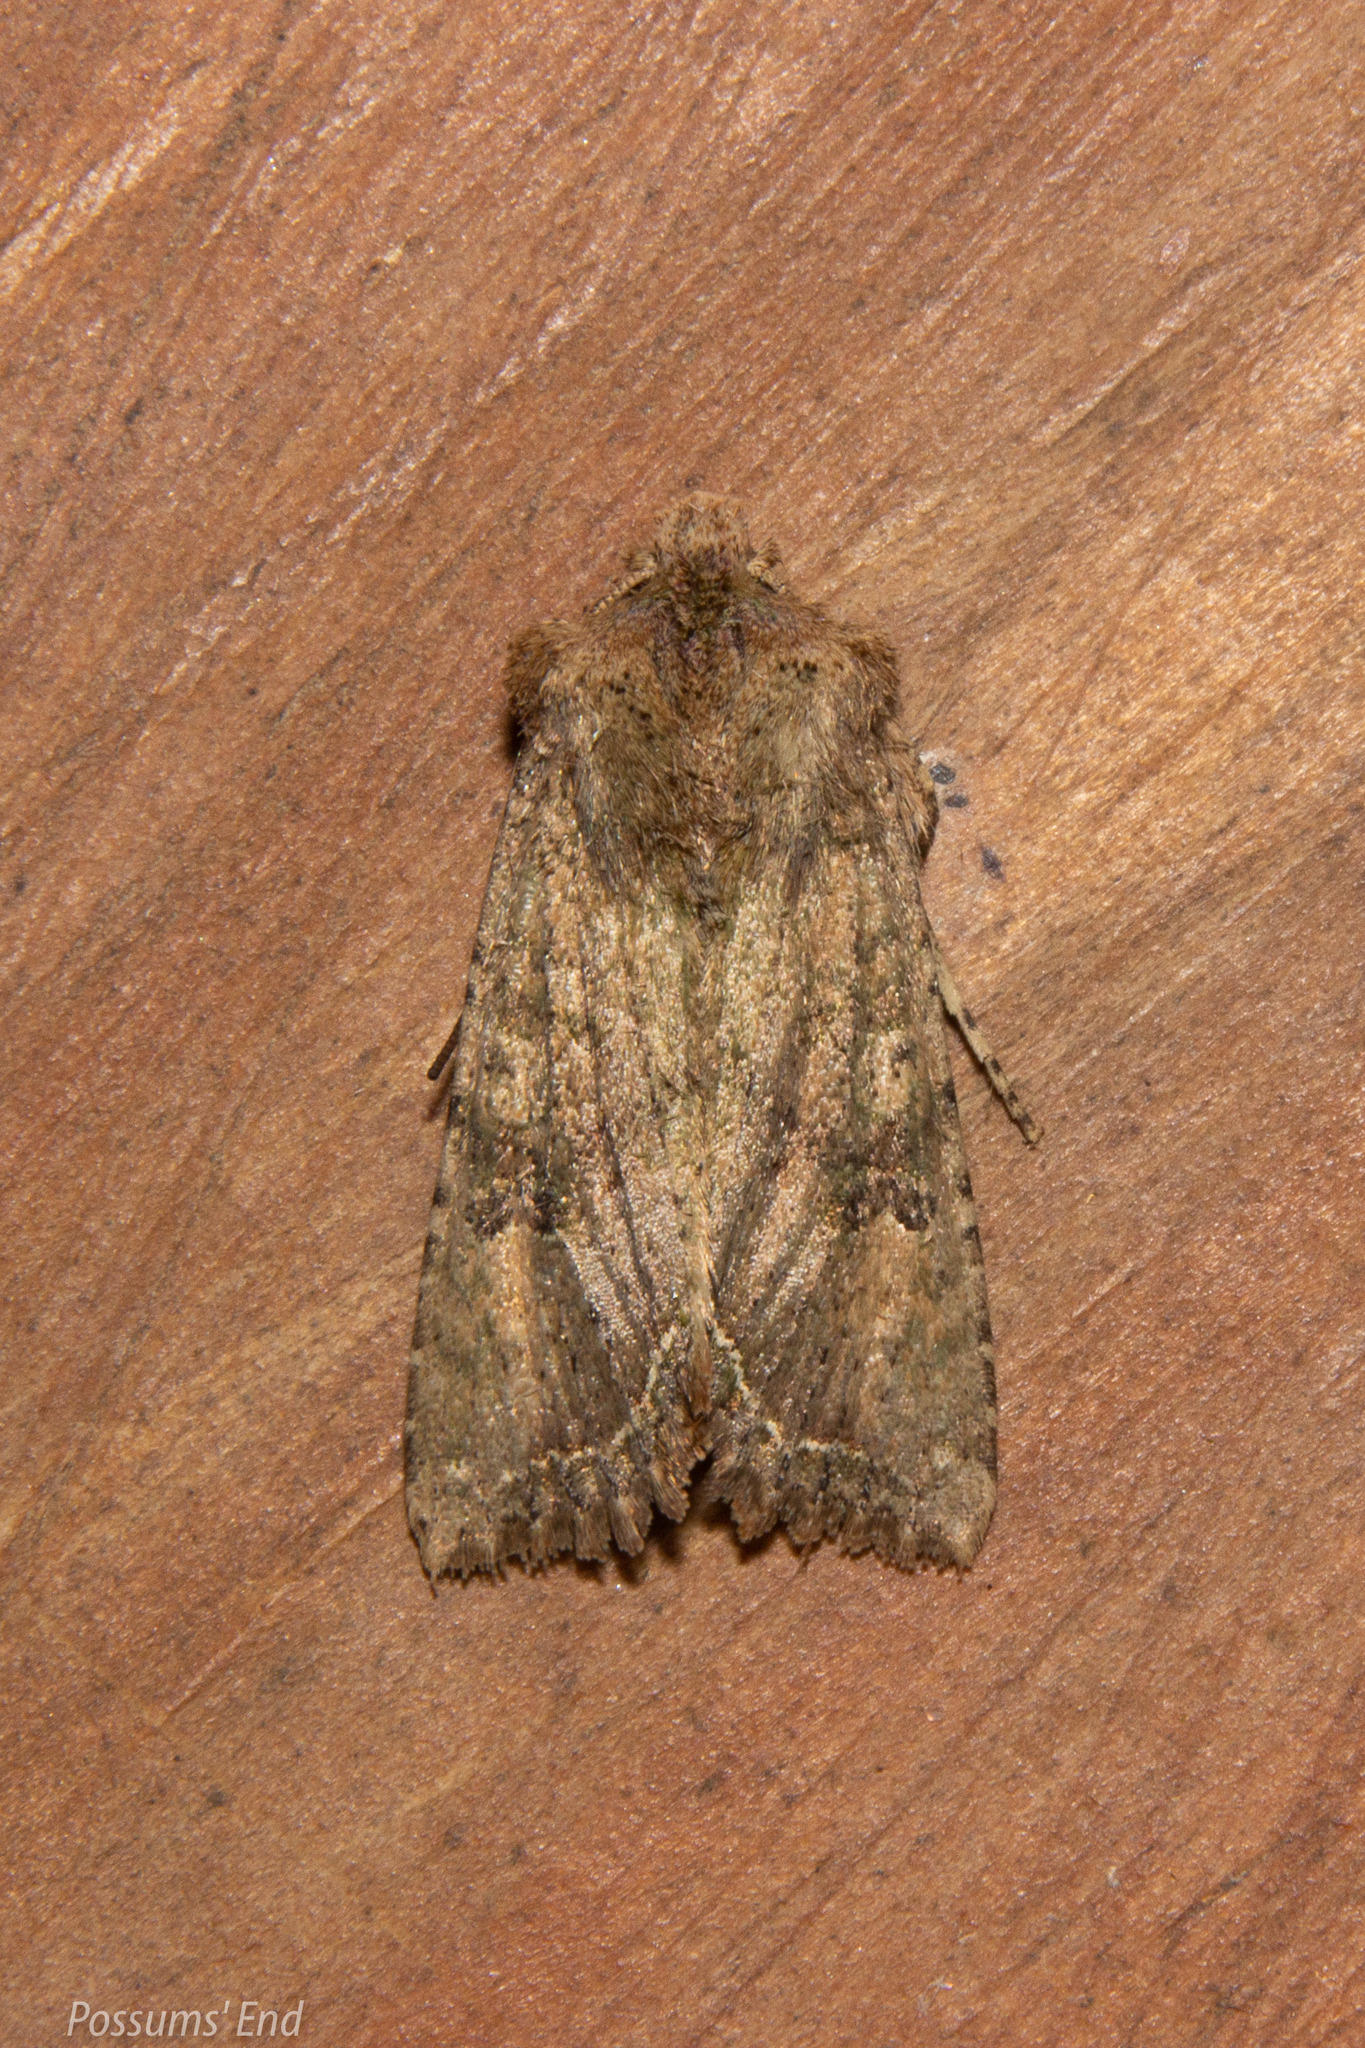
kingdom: Animalia
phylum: Arthropoda
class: Insecta
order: Lepidoptera
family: Noctuidae
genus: Meterana
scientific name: Meterana inchoata
